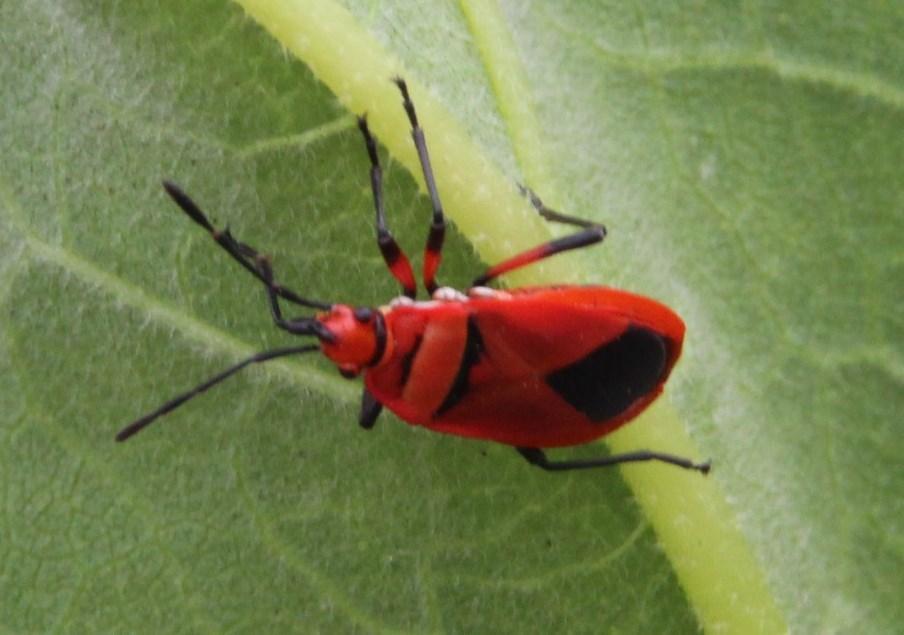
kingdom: Animalia
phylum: Arthropoda
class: Insecta
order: Hemiptera
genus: Cenaeus
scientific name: Cenaeus
